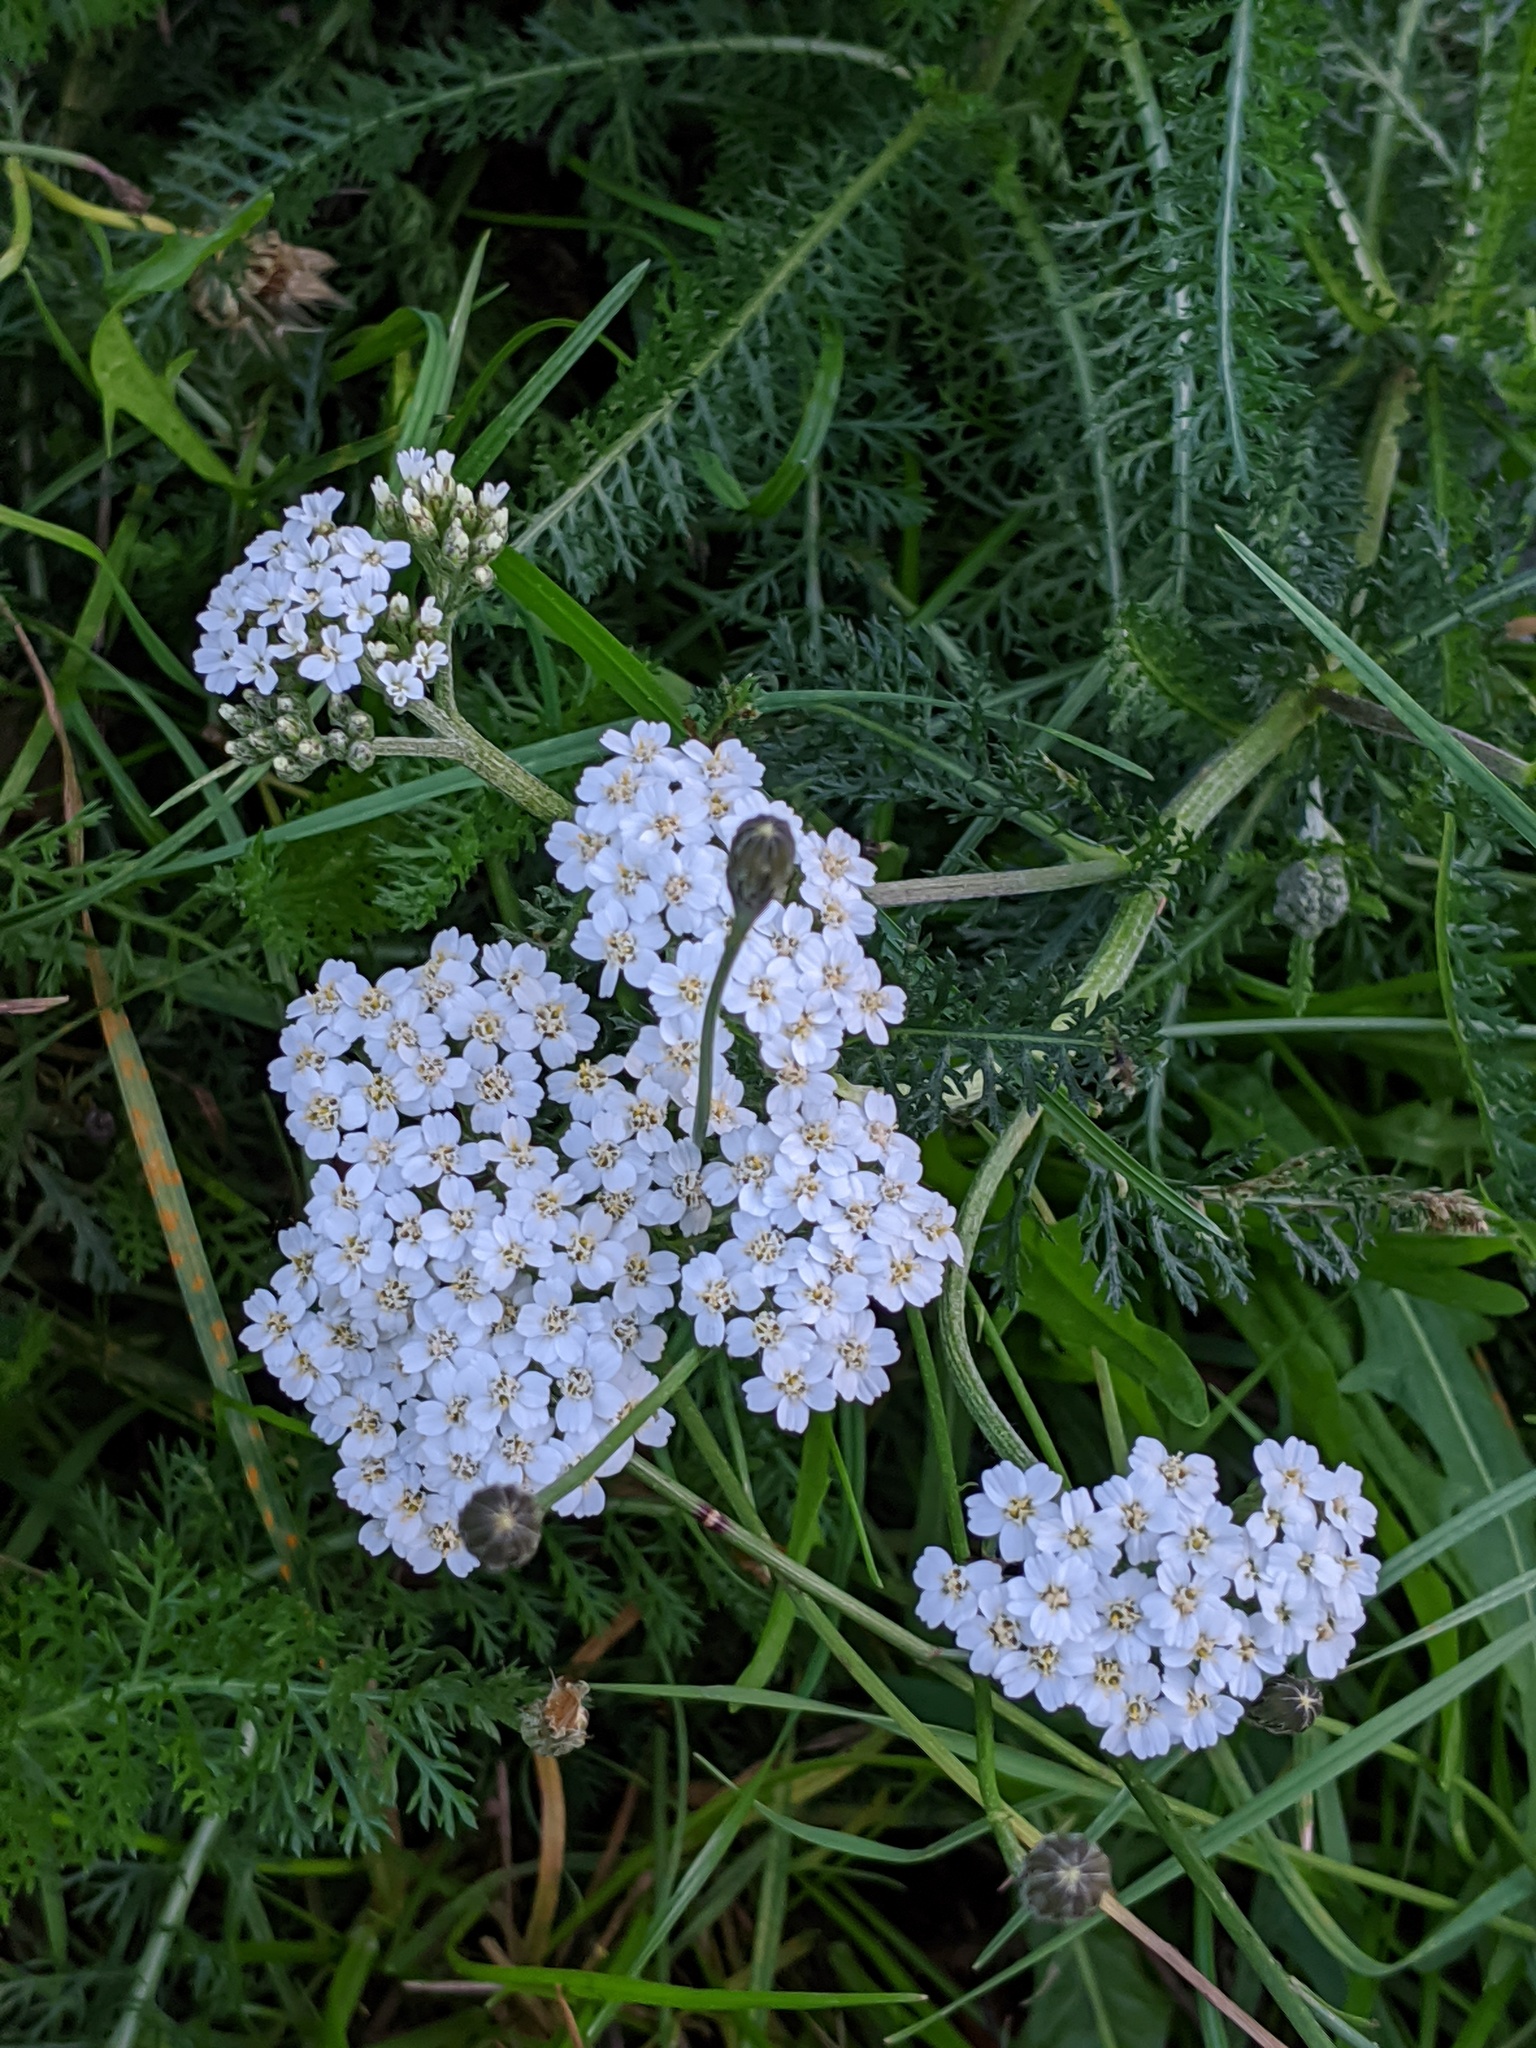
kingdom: Plantae
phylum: Tracheophyta
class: Magnoliopsida
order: Asterales
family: Asteraceae
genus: Achillea
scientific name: Achillea millefolium
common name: Yarrow
